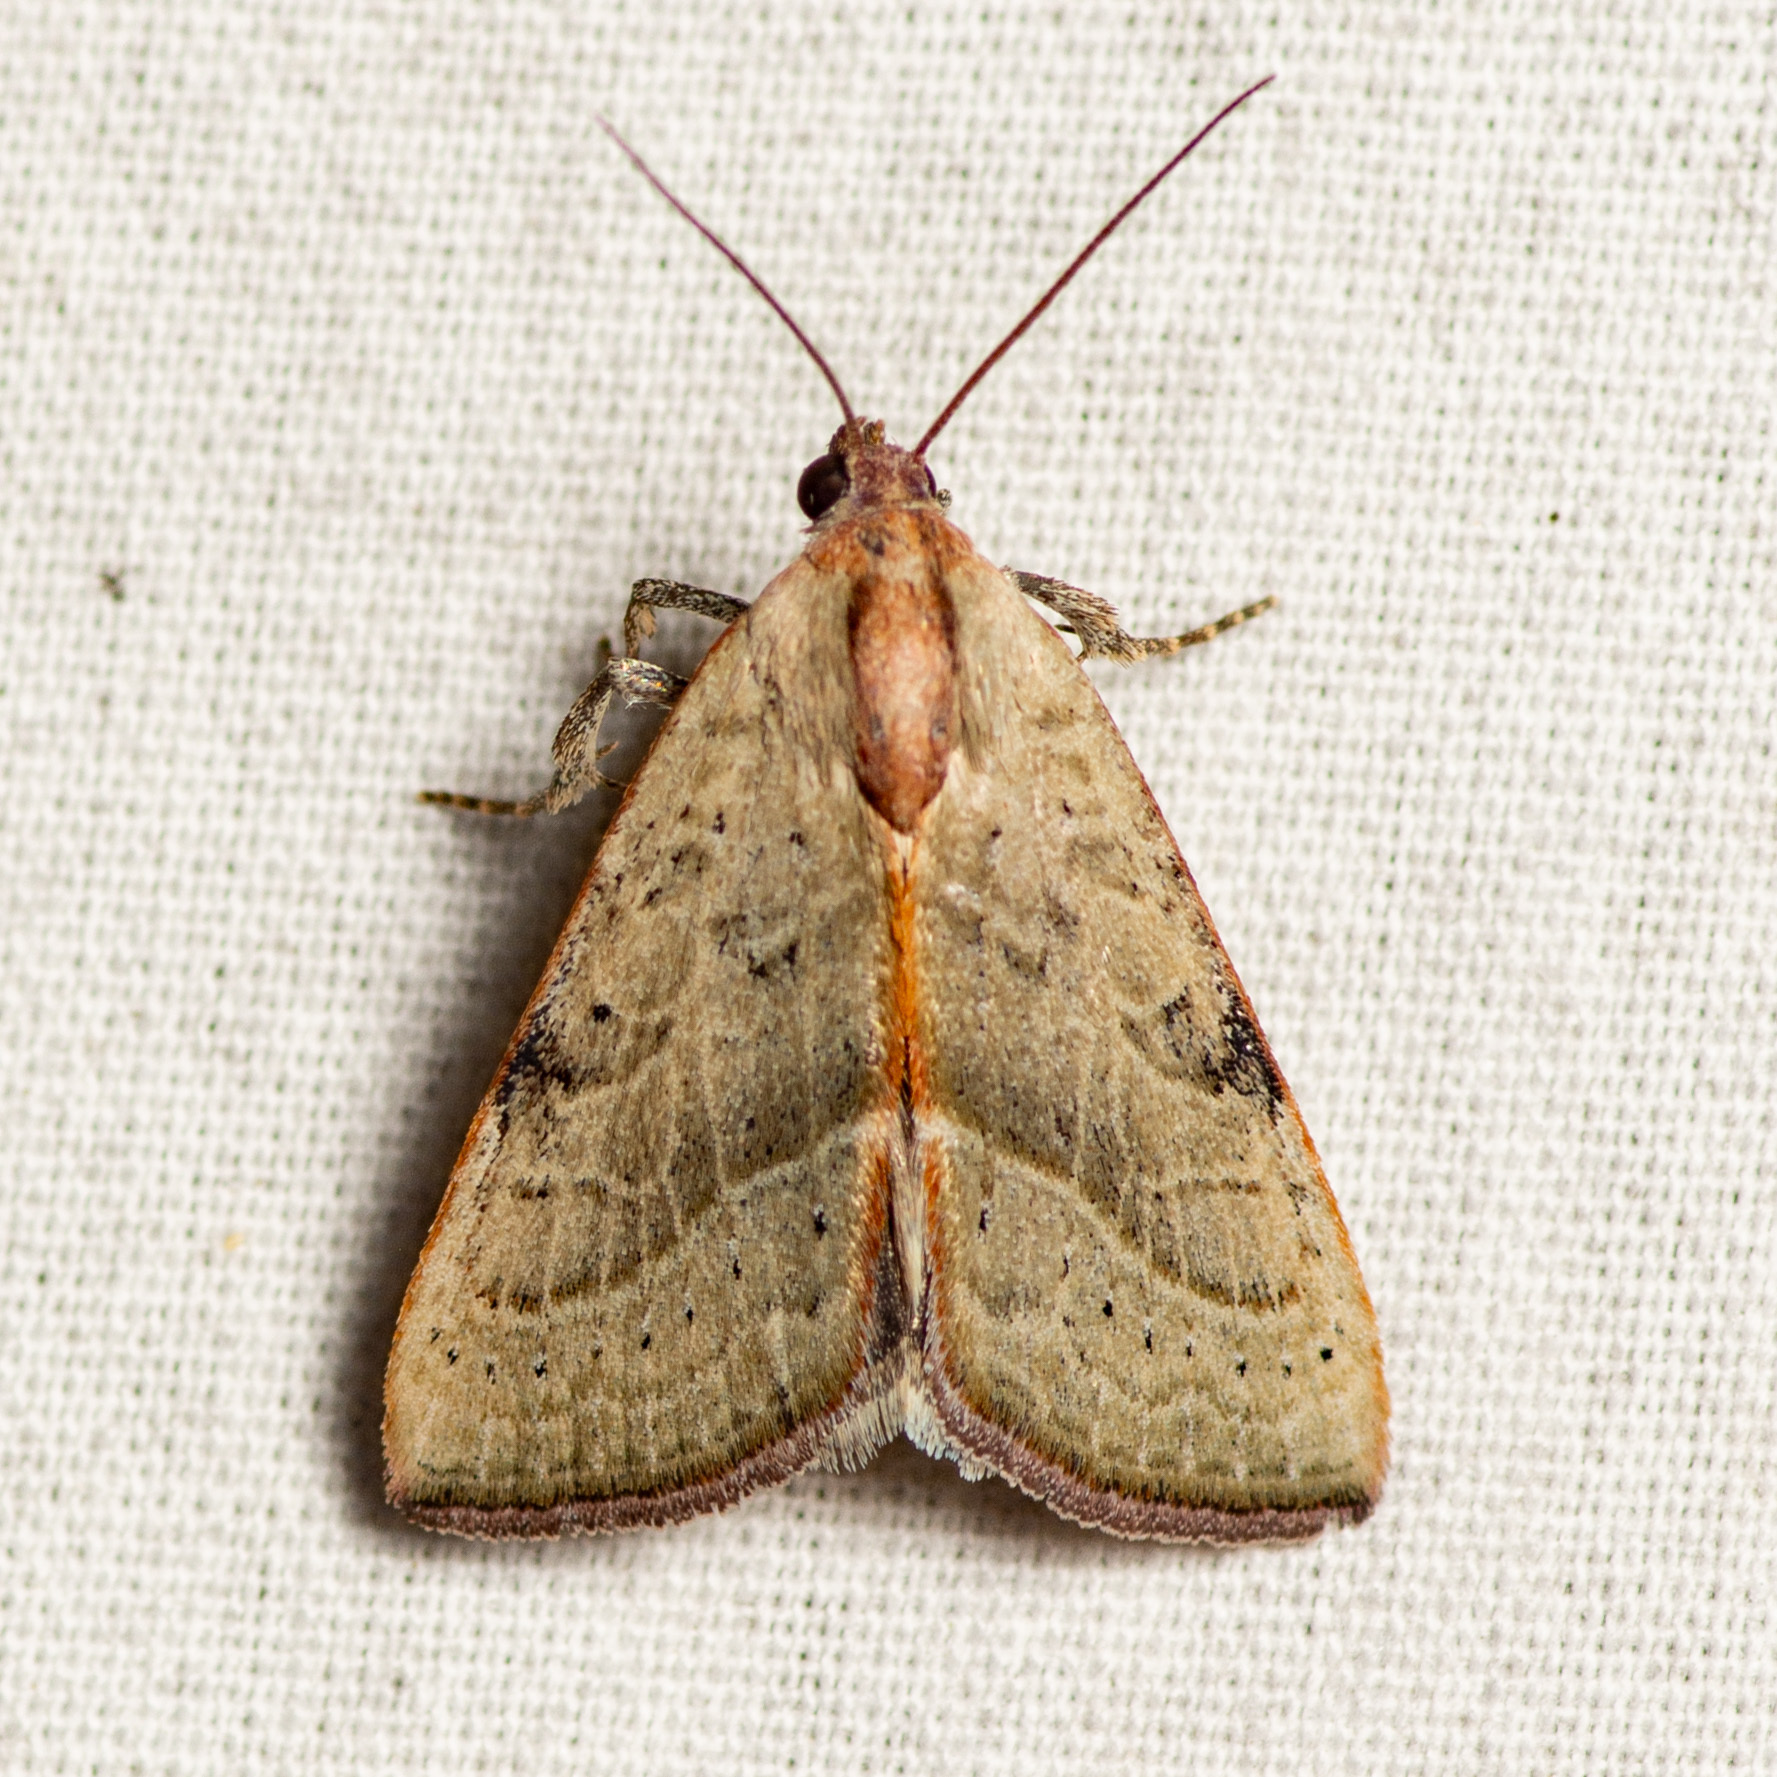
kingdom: Animalia
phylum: Arthropoda
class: Insecta
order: Lepidoptera
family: Noctuidae
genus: Galgula
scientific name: Galgula partita
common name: Wedgeling
